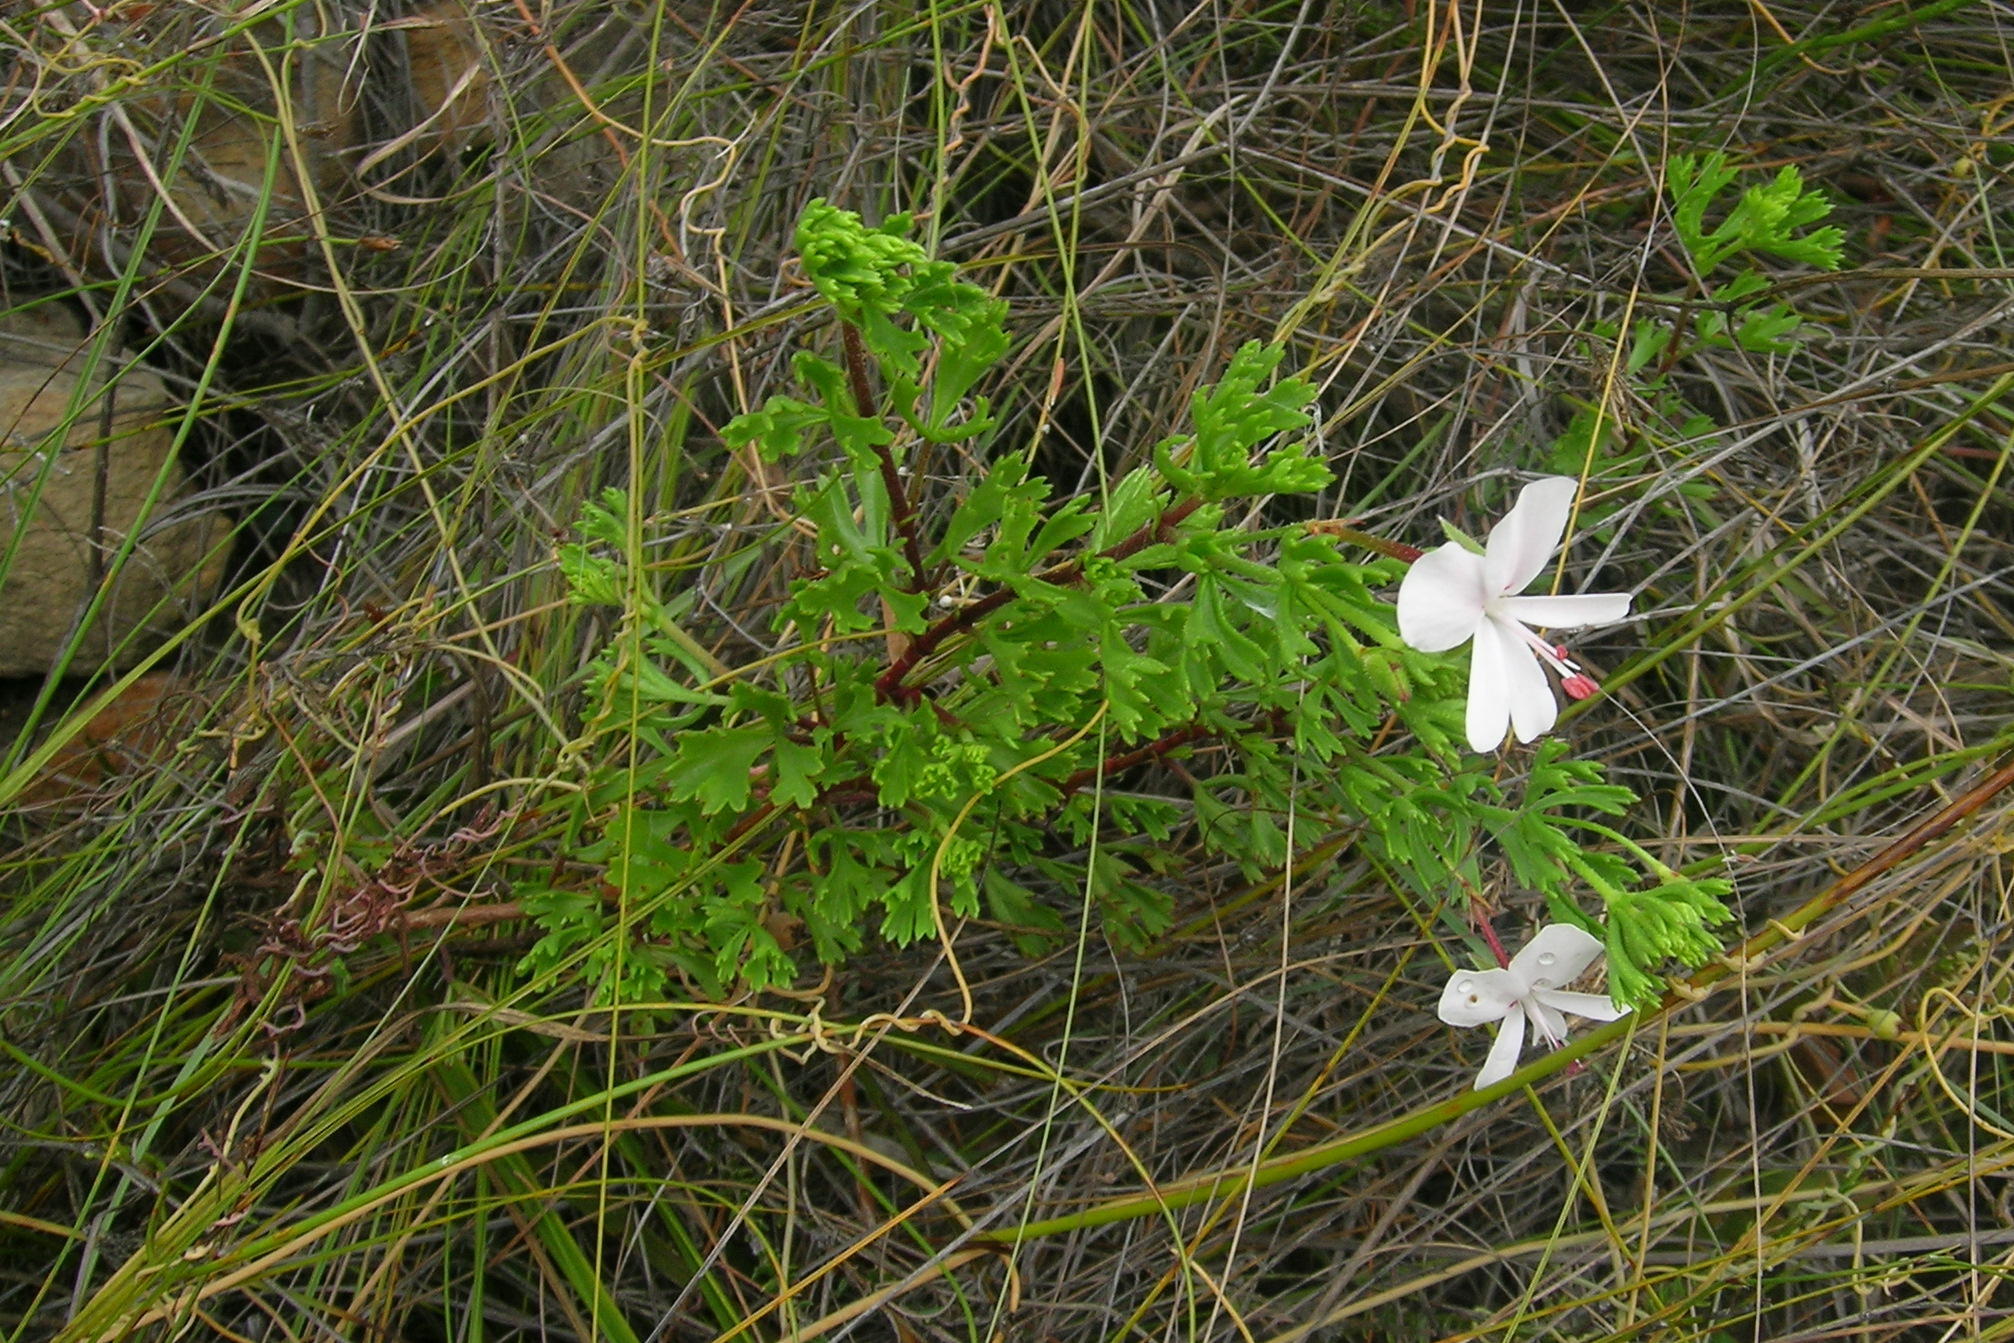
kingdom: Plantae
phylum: Tracheophyta
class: Magnoliopsida
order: Geraniales
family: Geraniaceae
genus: Pelargonium
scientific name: Pelargonium ternatum
